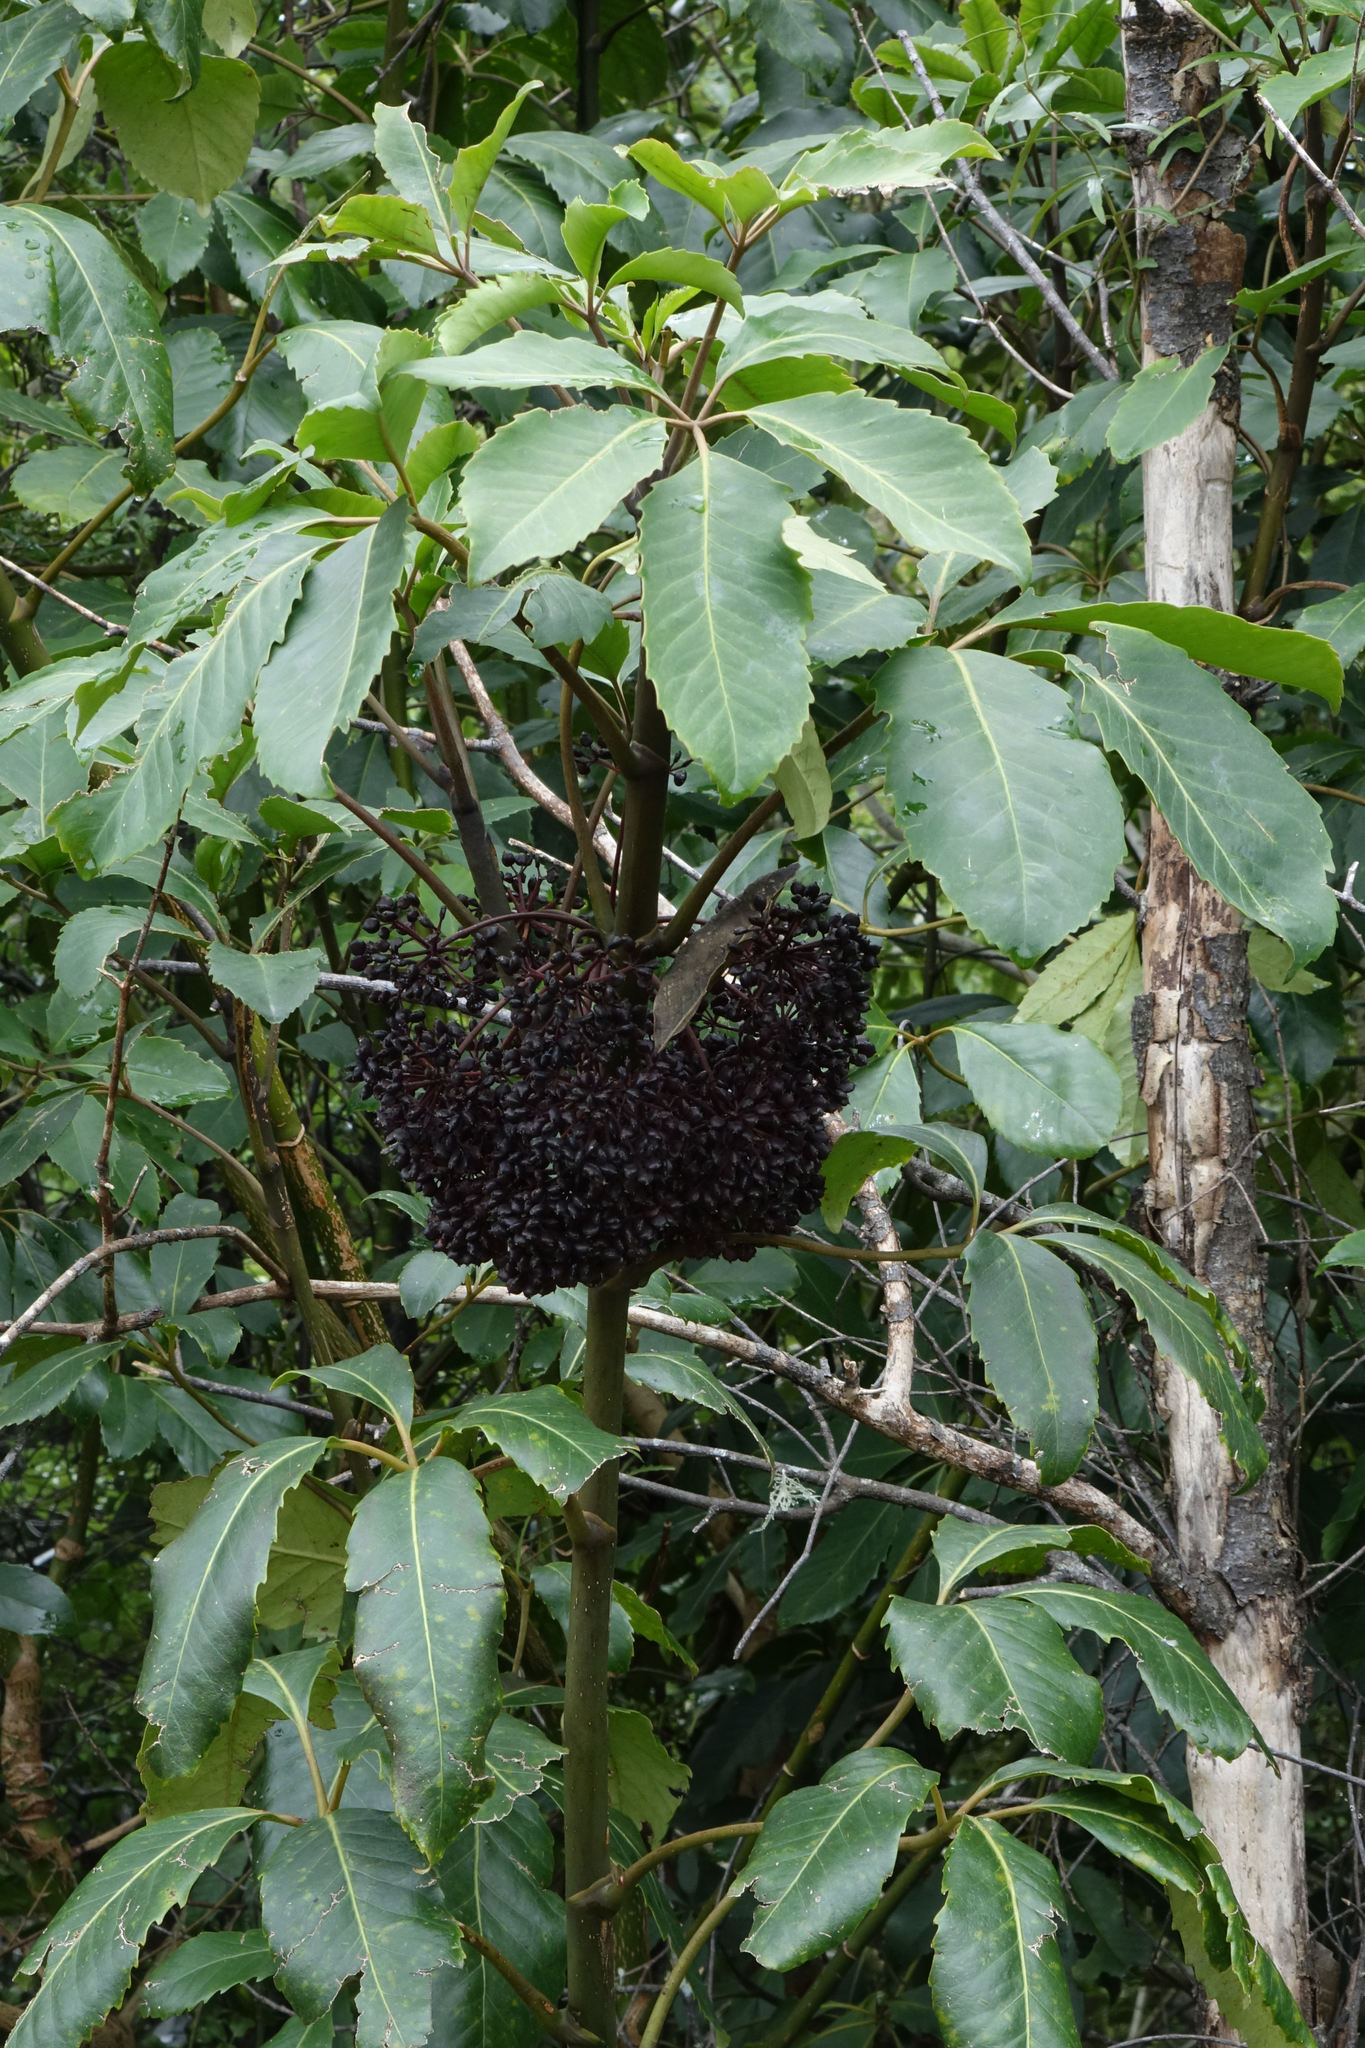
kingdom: Plantae
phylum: Tracheophyta
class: Magnoliopsida
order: Apiales
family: Araliaceae
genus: Neopanax
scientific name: Neopanax arboreus
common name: Five-fingers
